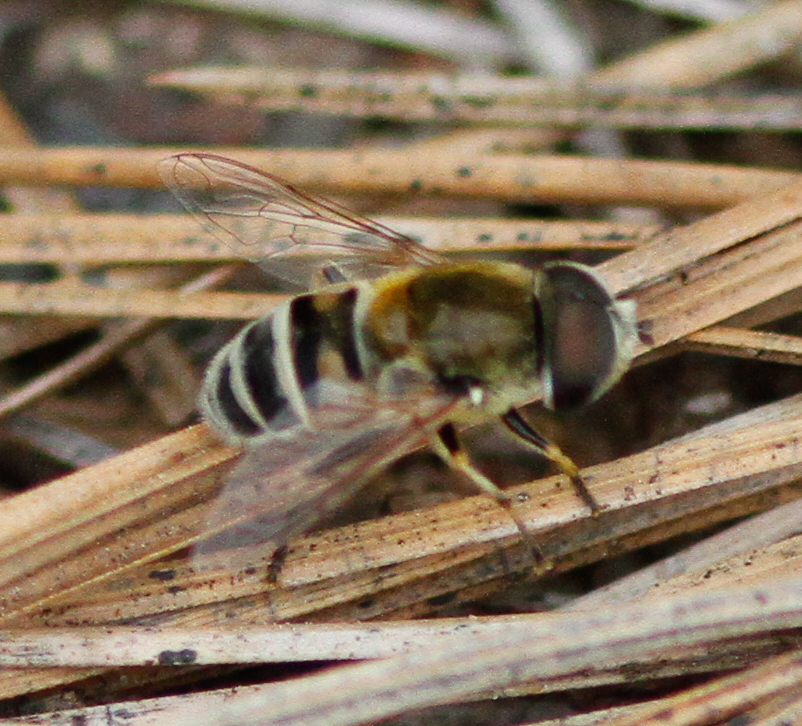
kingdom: Animalia
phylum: Arthropoda
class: Insecta
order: Diptera
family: Syrphidae
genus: Eristalis
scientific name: Eristalis stipator
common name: Yellow-shouldered drone fly
